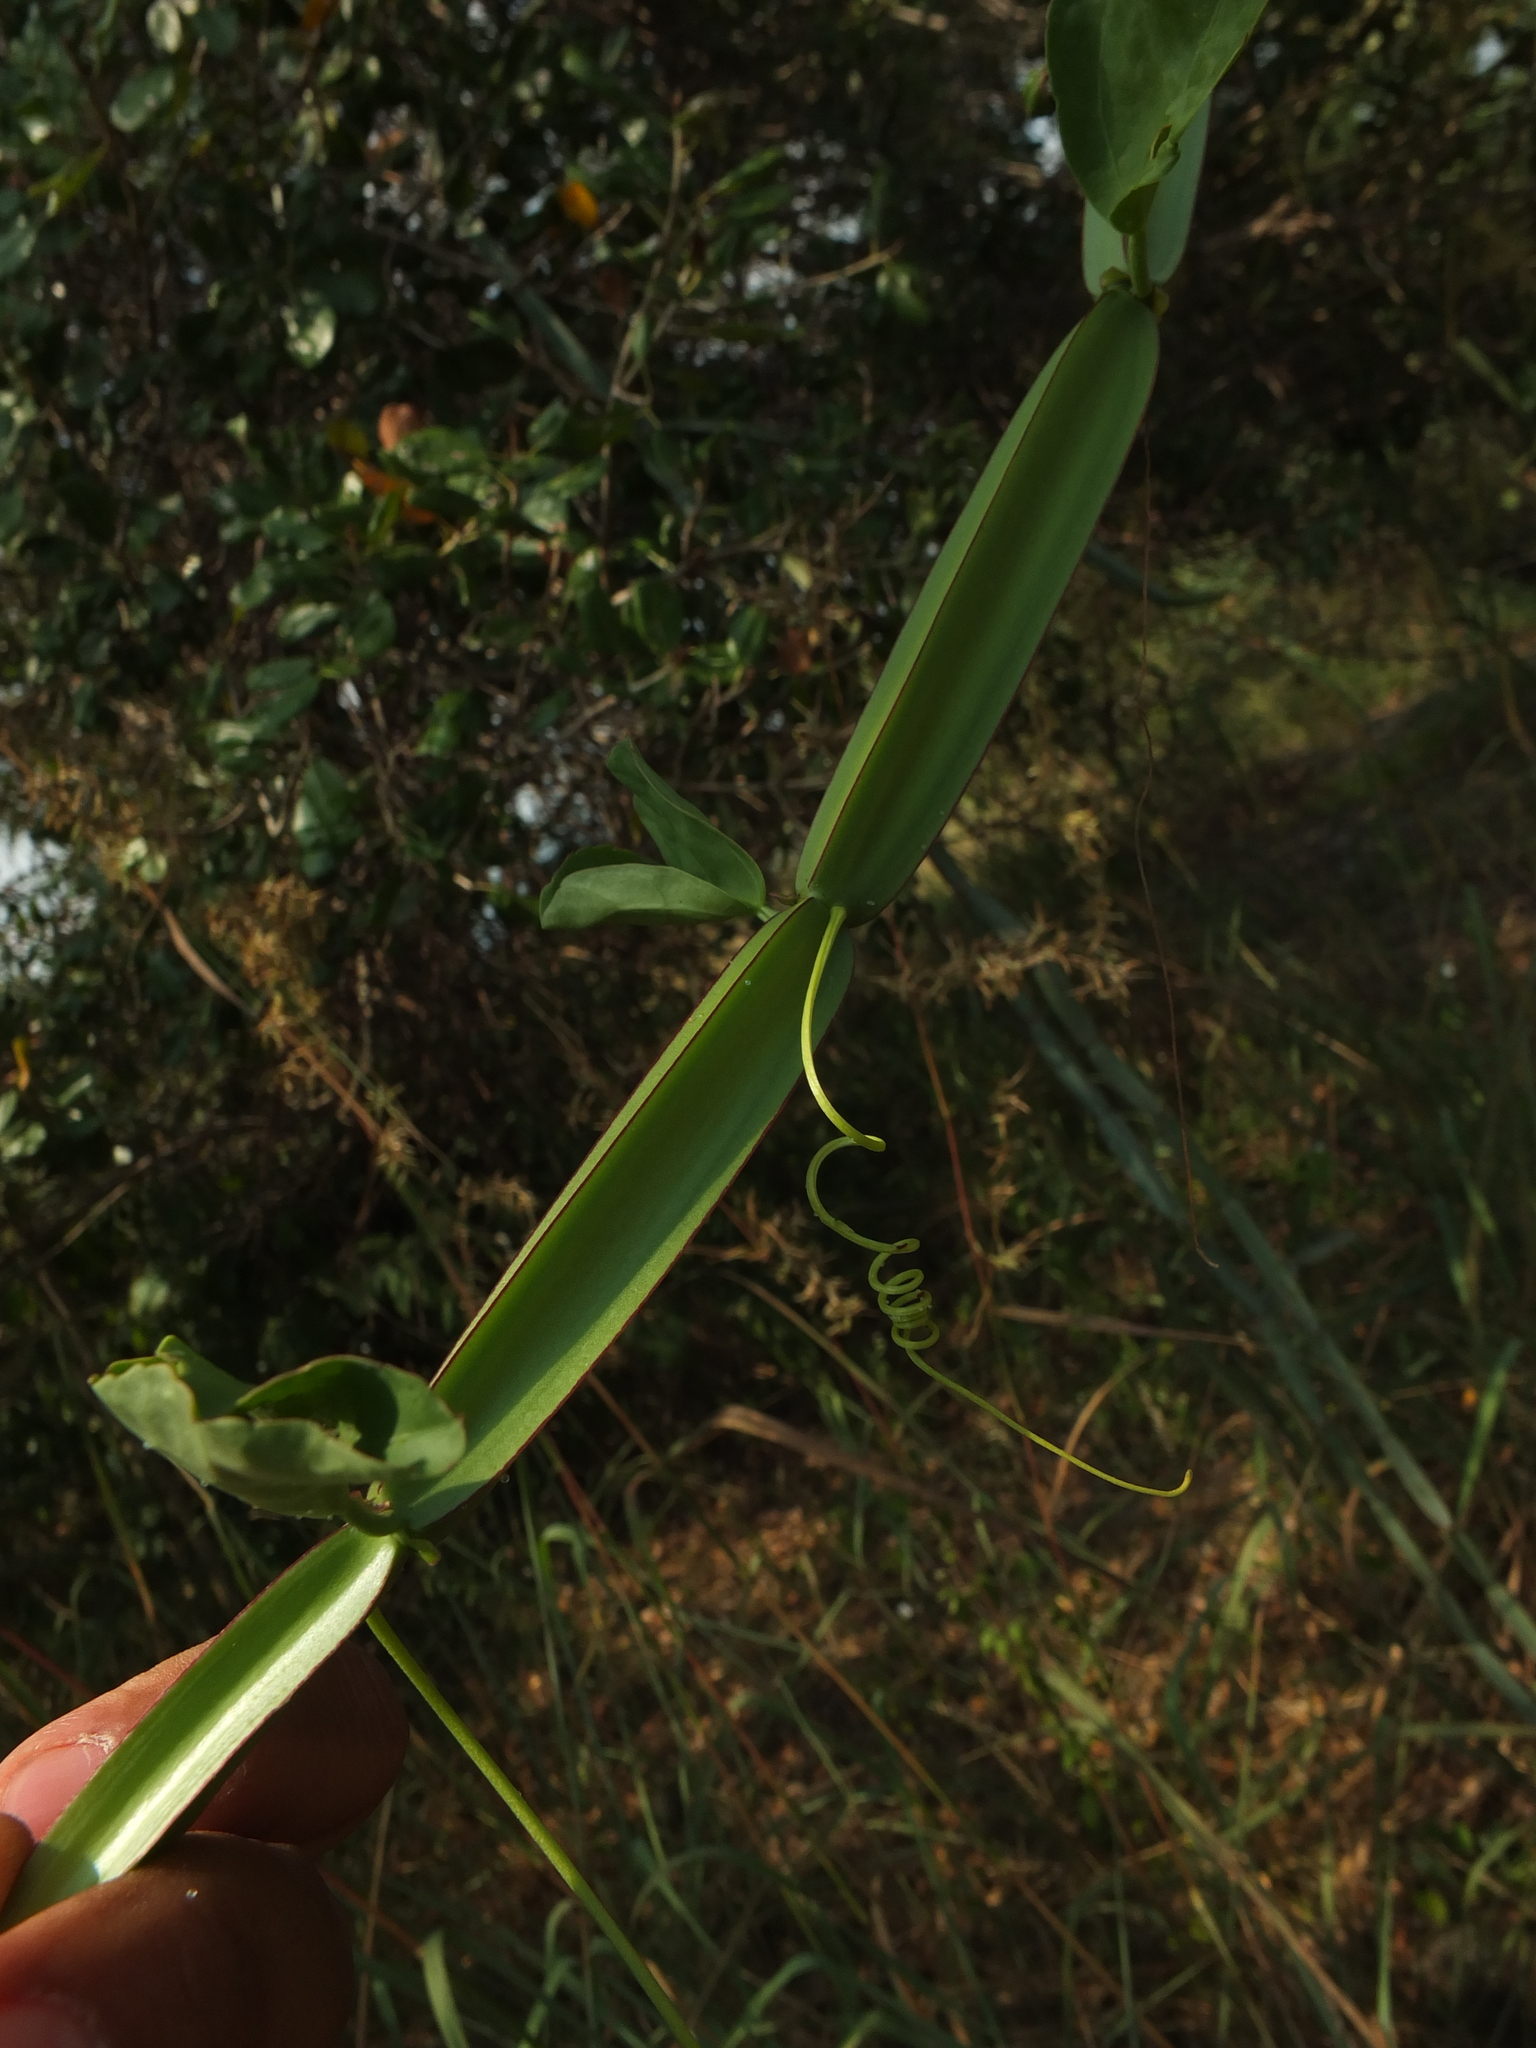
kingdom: Plantae
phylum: Tracheophyta
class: Magnoliopsida
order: Vitales
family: Vitaceae
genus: Cissus
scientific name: Cissus quadrangularis
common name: Veldt-grape
